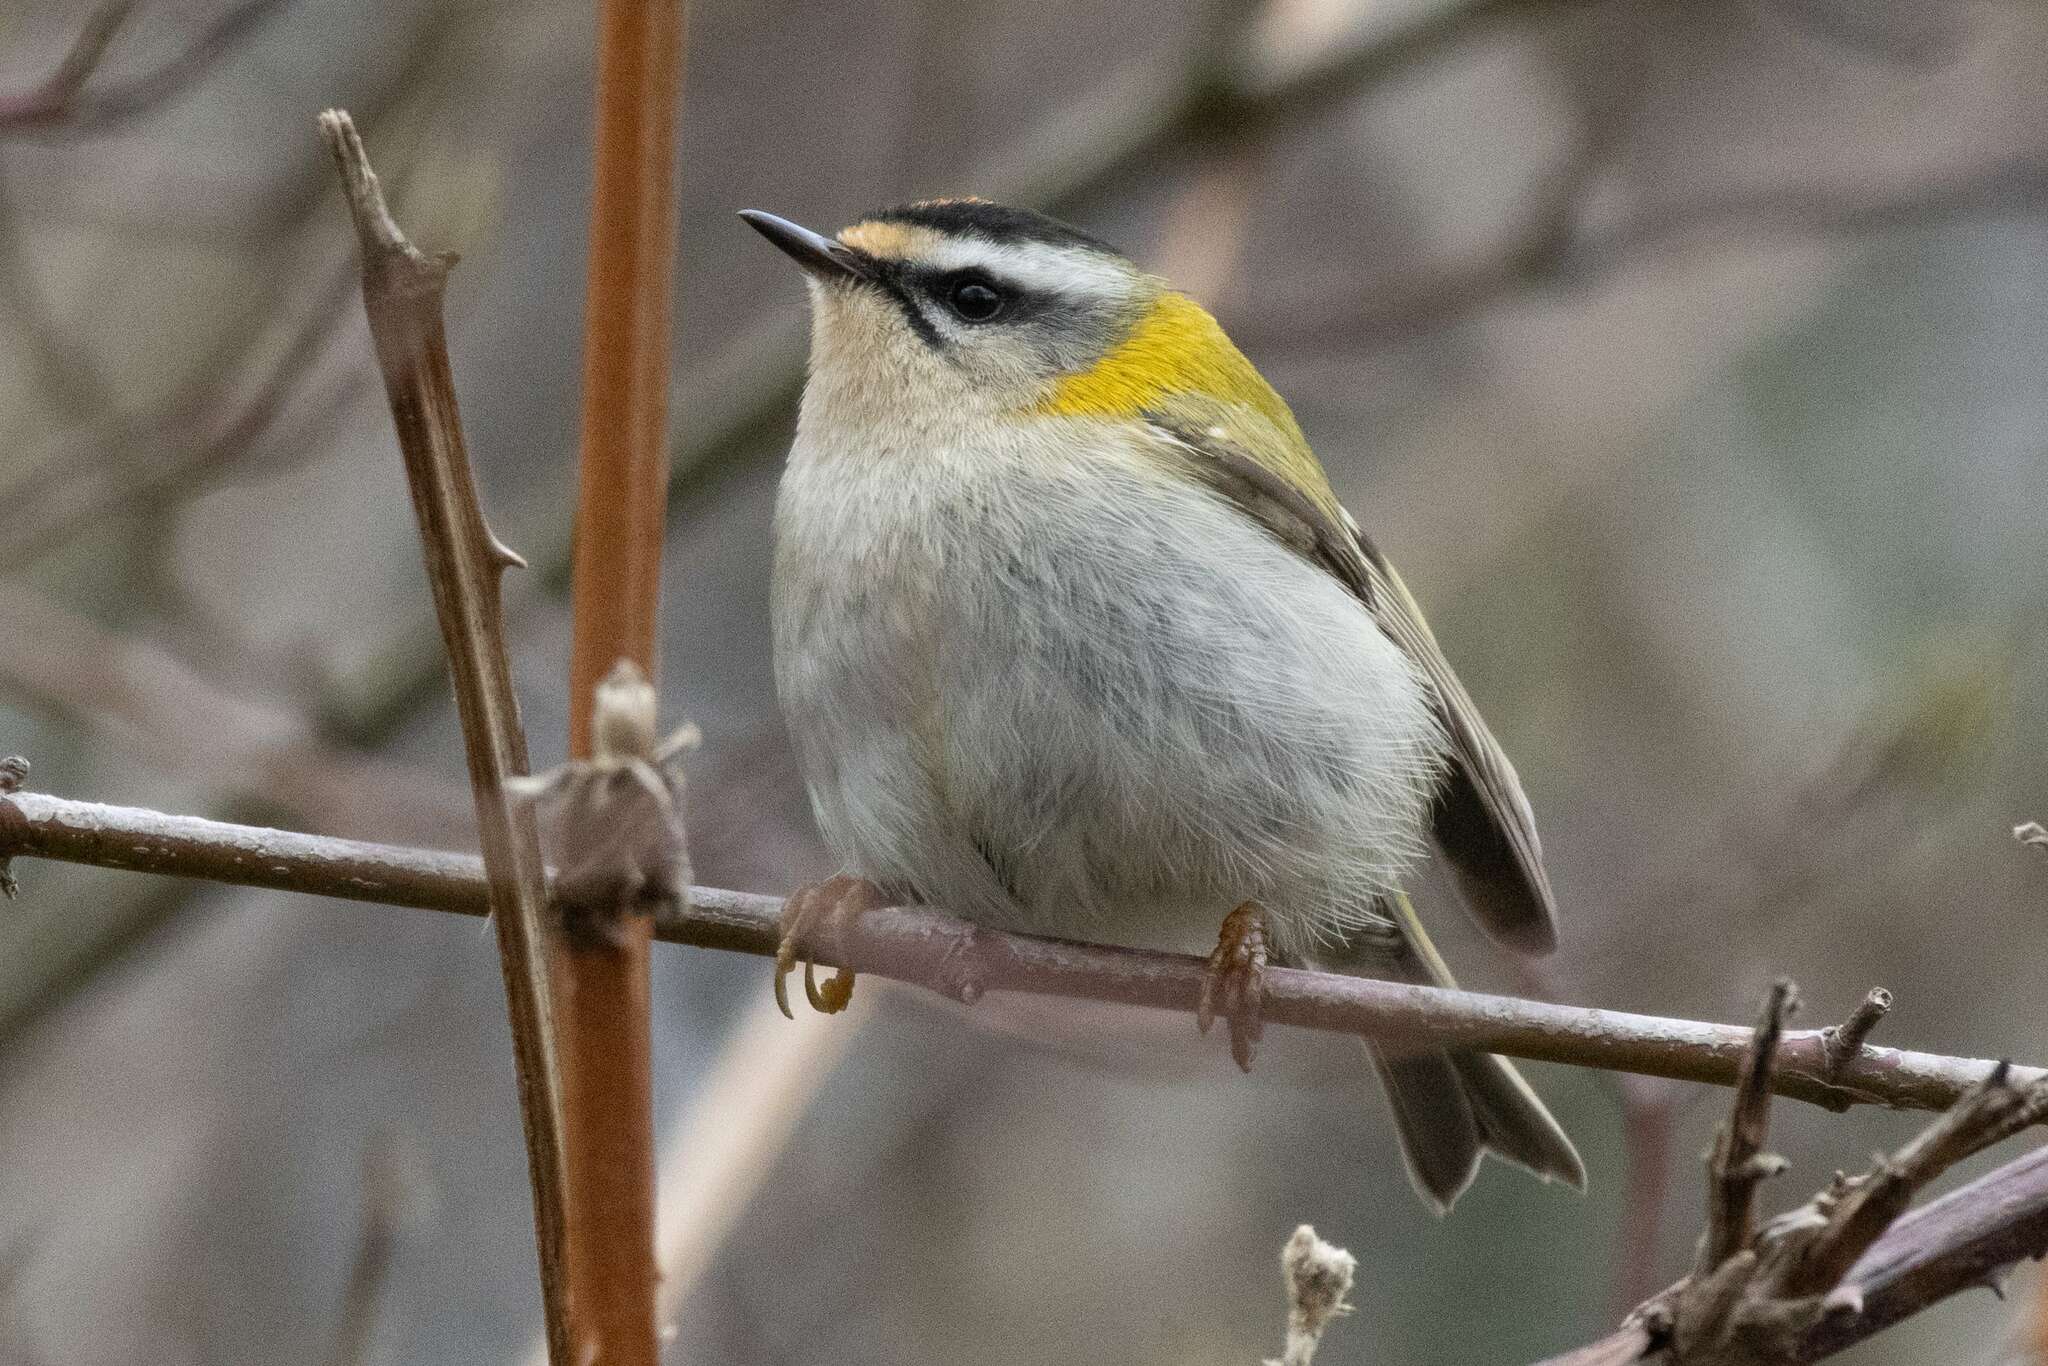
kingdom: Animalia
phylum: Chordata
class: Aves
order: Passeriformes
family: Regulidae
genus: Regulus
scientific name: Regulus ignicapilla
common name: Firecrest
